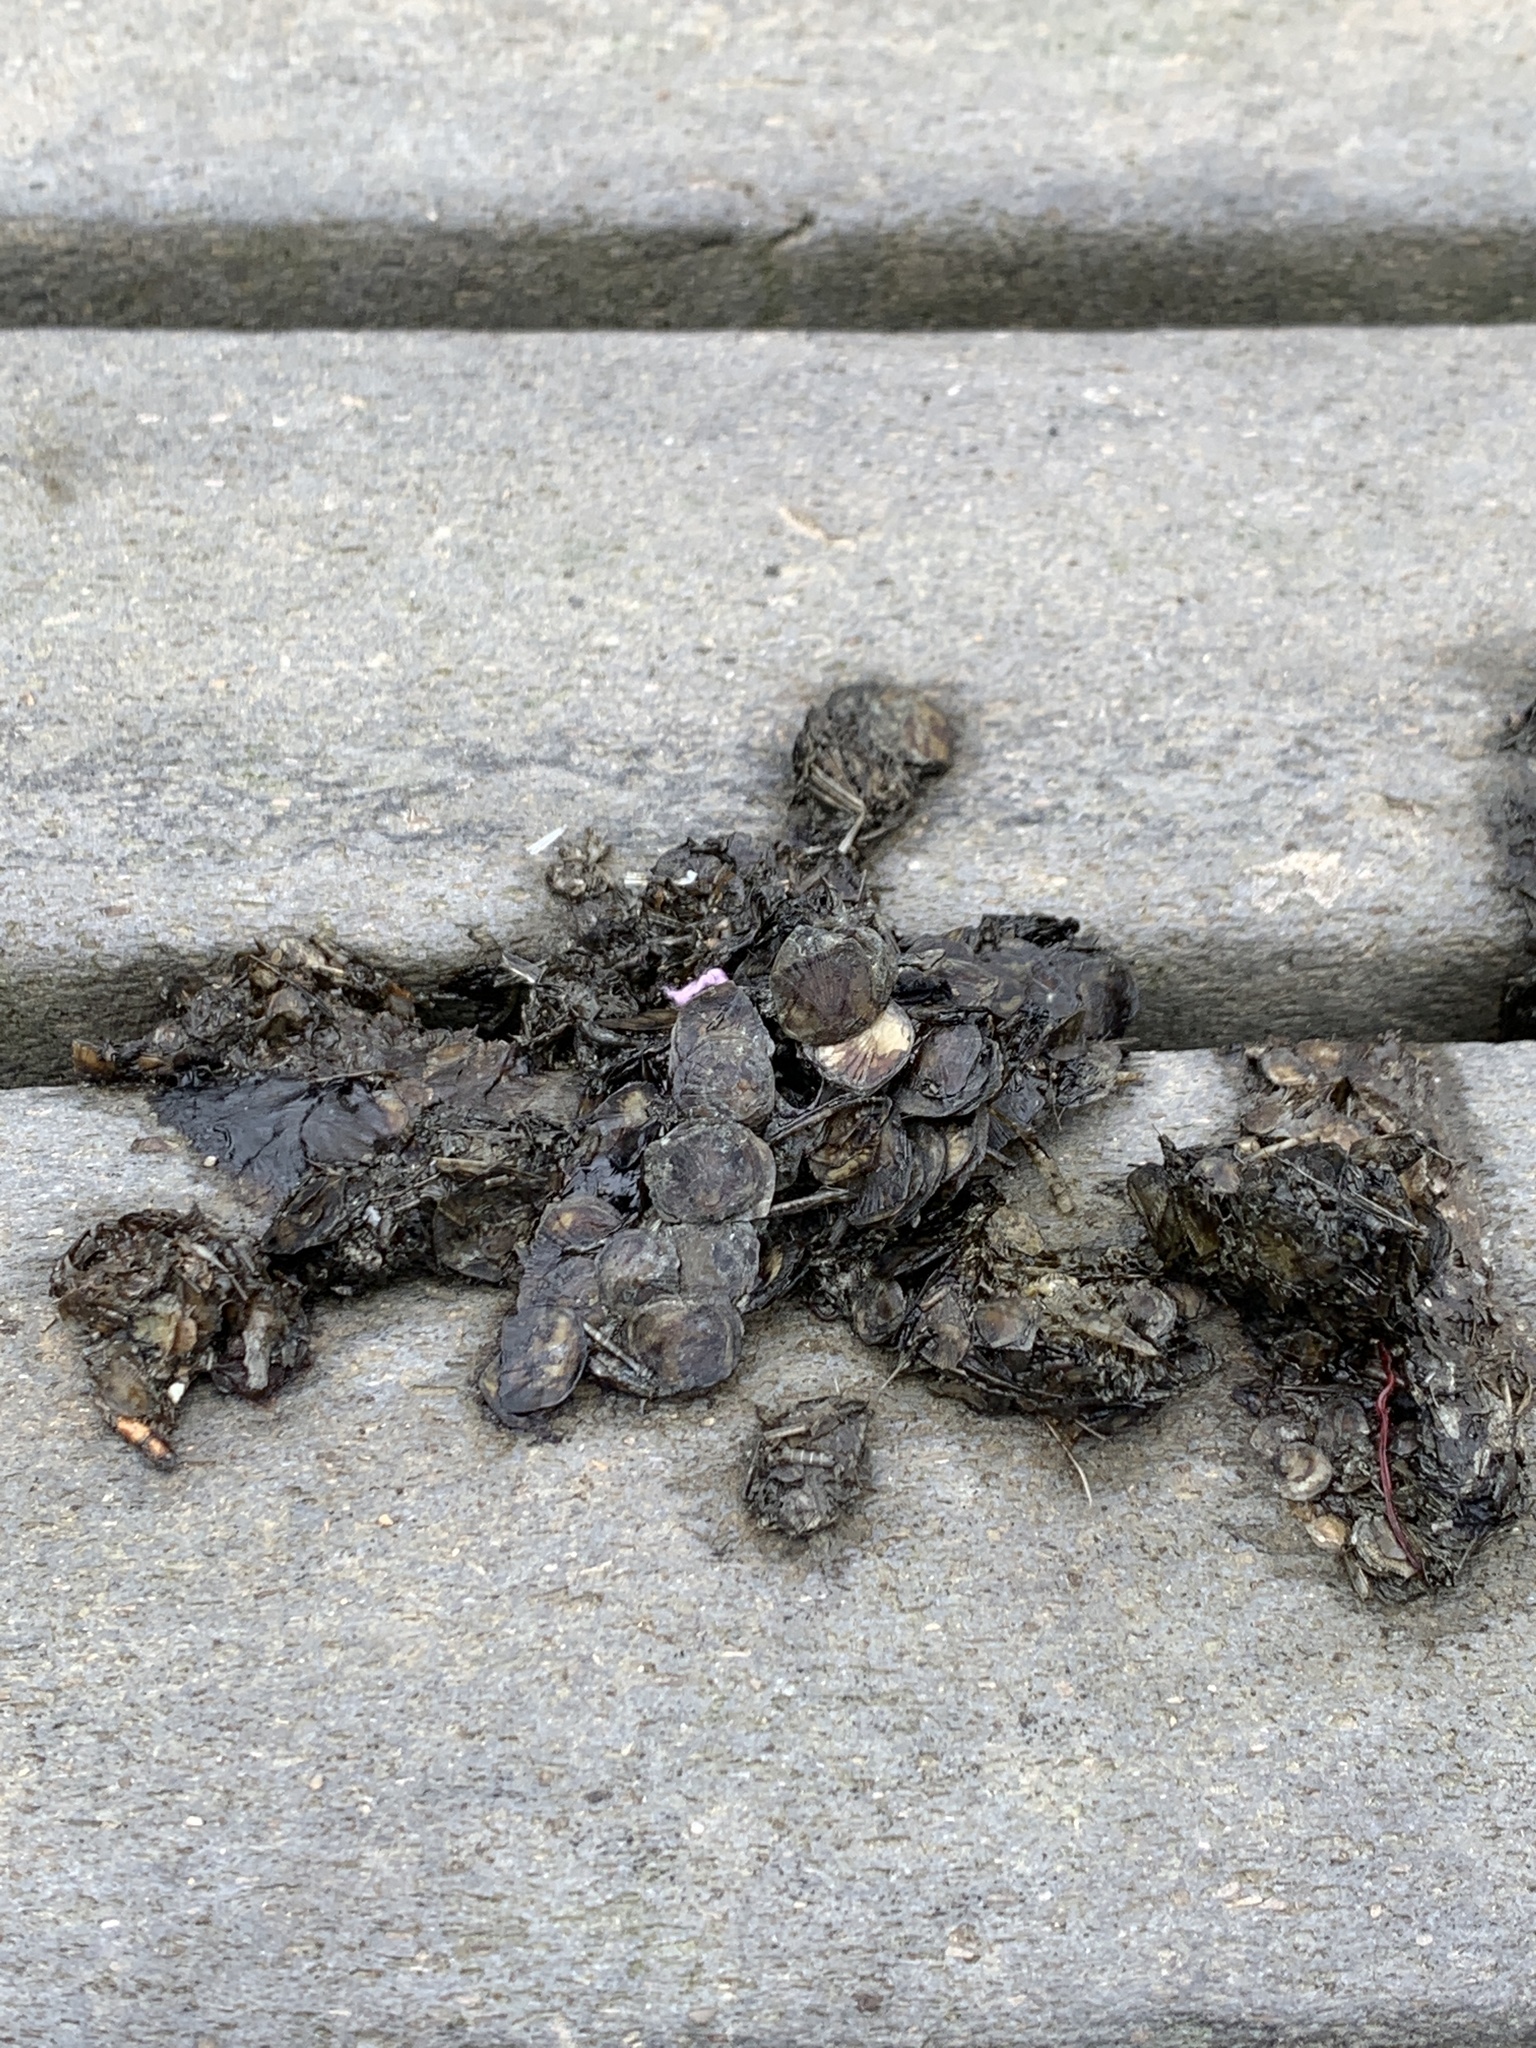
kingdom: Animalia
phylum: Chordata
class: Mammalia
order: Carnivora
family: Mustelidae
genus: Lontra
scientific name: Lontra canadensis
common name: North american river otter
